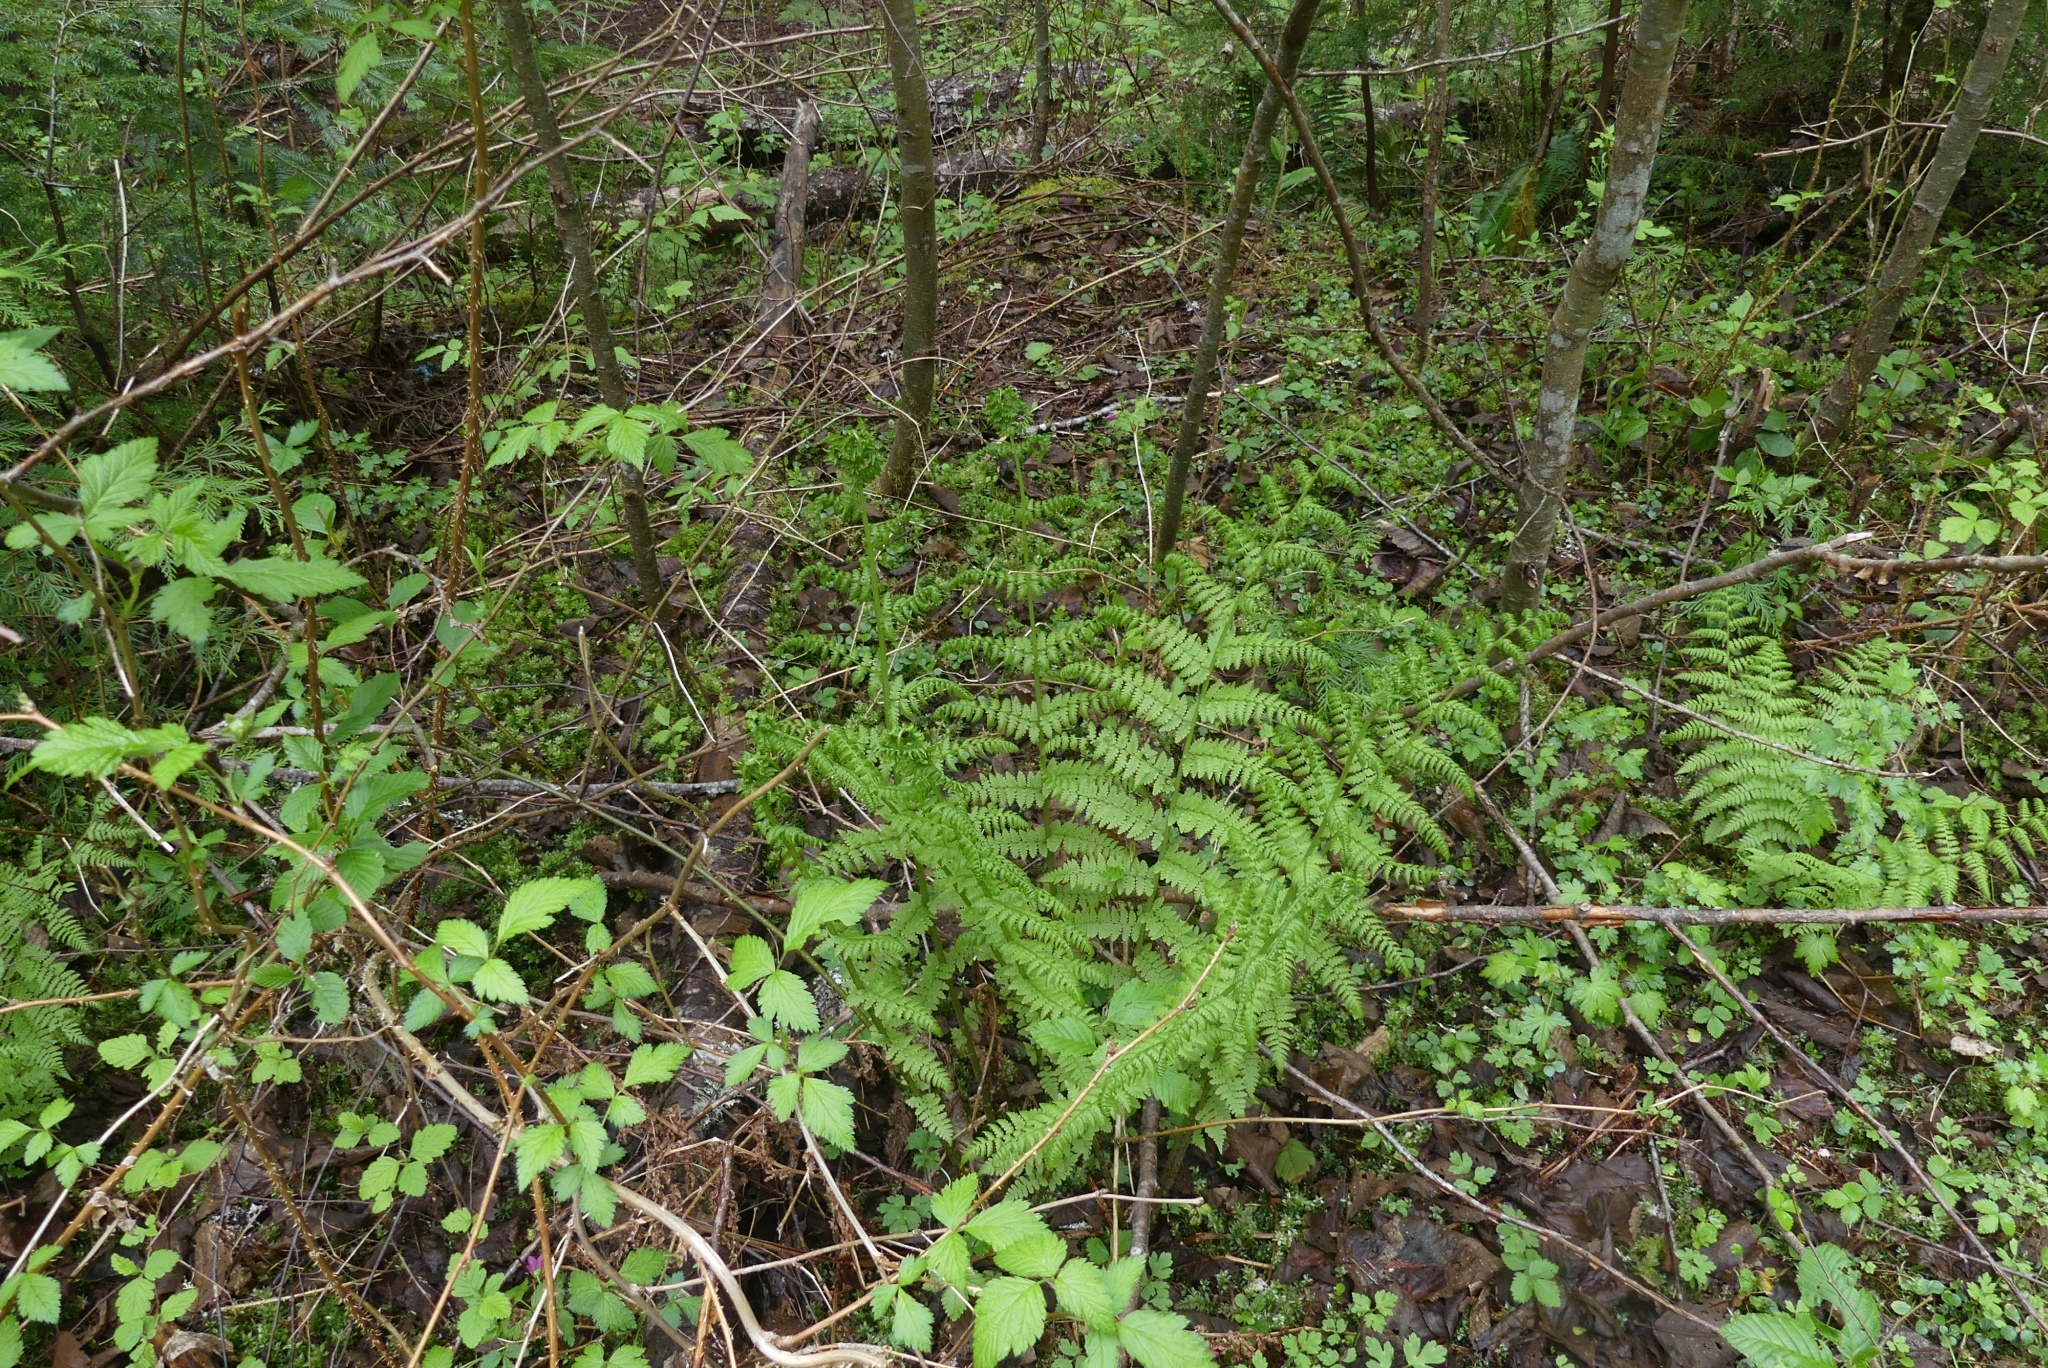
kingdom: Plantae
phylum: Tracheophyta
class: Polypodiopsida
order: Polypodiales
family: Athyriaceae
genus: Athyrium
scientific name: Athyrium filix-femina
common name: Lady fern
